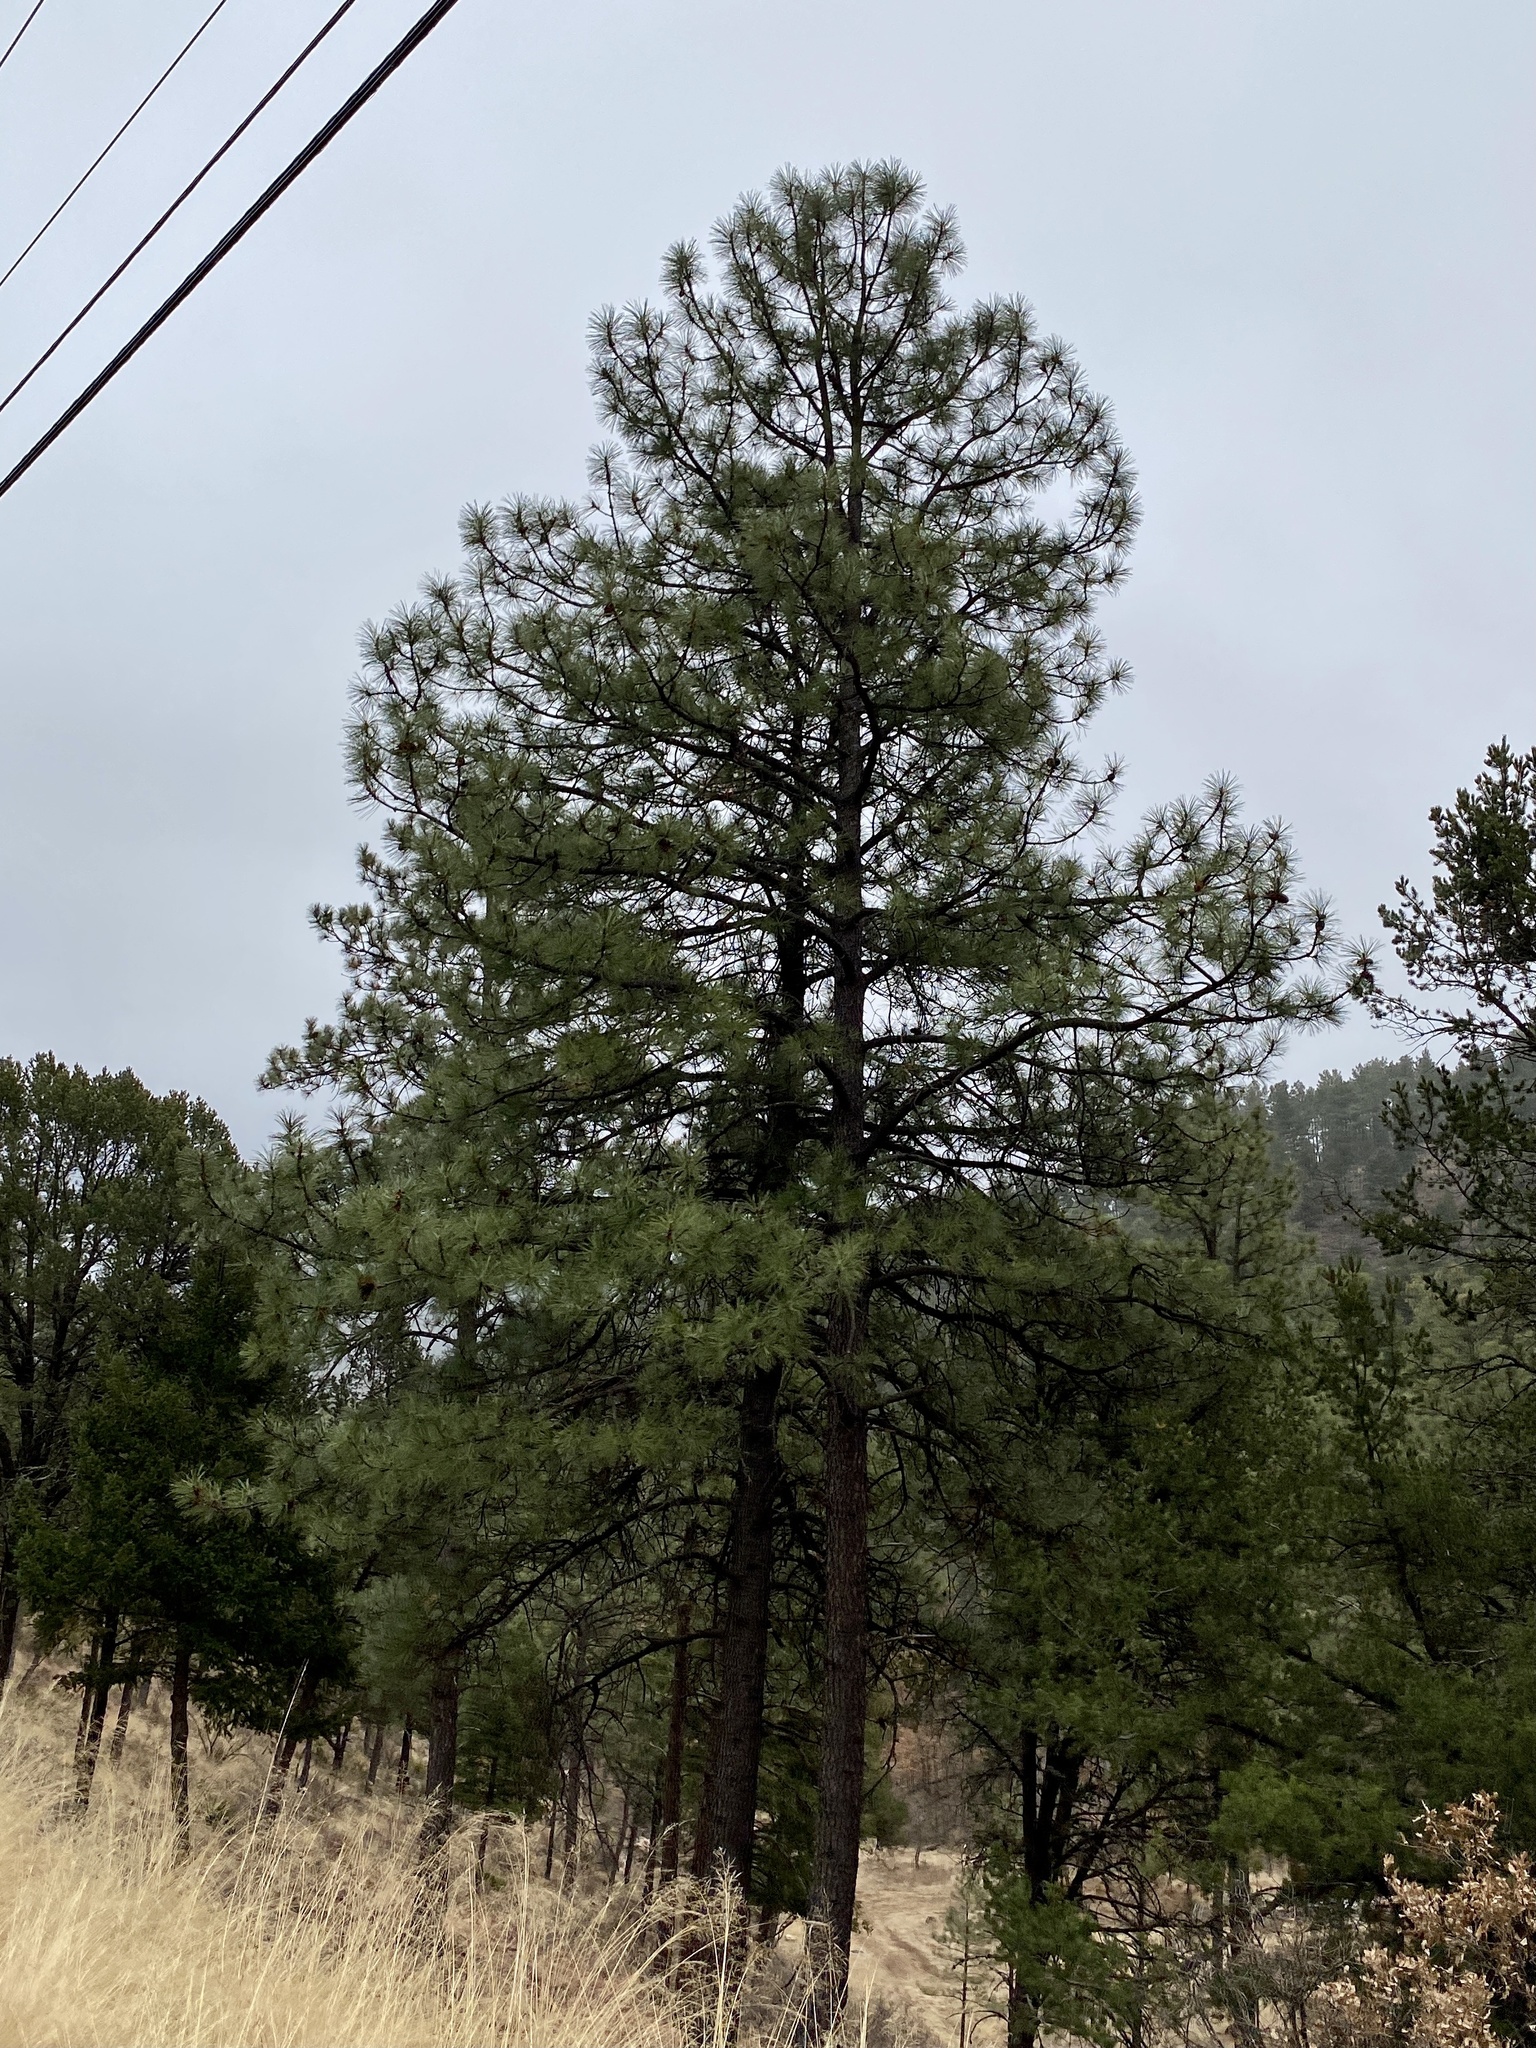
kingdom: Plantae
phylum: Tracheophyta
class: Pinopsida
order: Pinales
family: Pinaceae
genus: Pinus
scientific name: Pinus ponderosa
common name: Western yellow-pine
